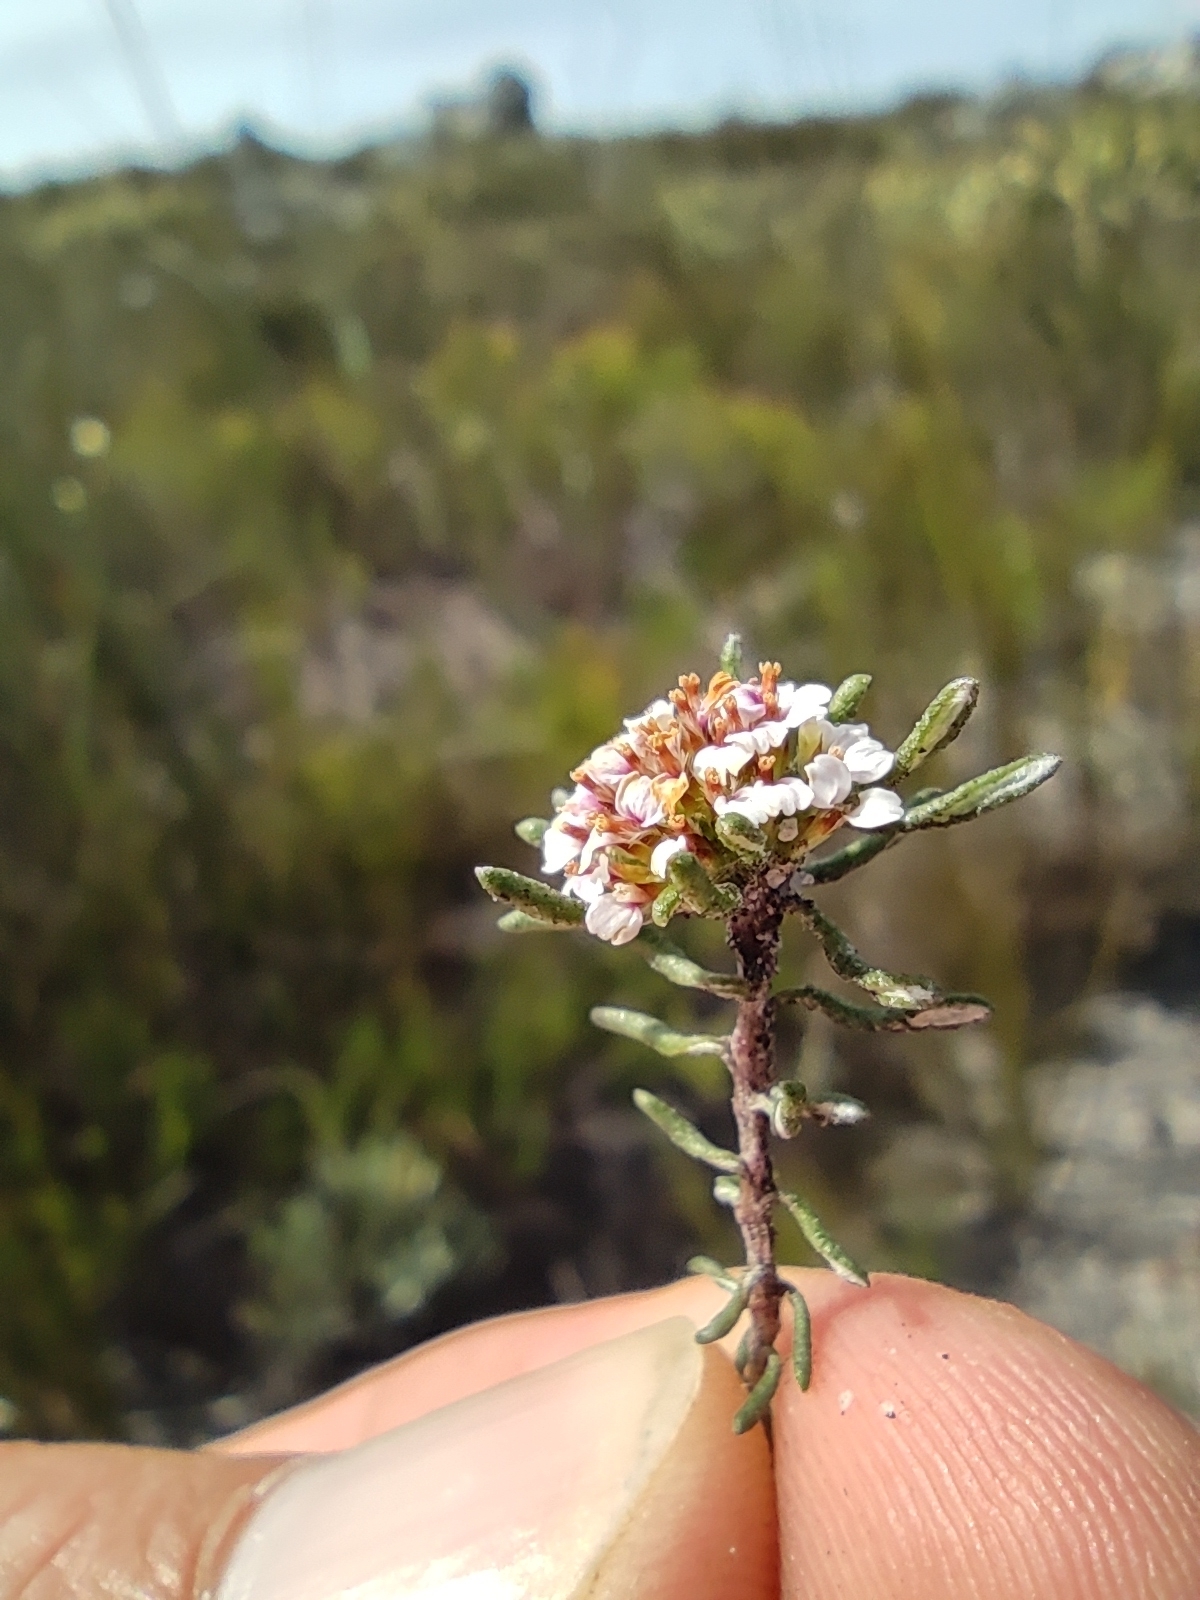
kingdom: Plantae
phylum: Tracheophyta
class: Magnoliopsida
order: Asterales
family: Asteraceae
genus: Disparago
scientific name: Disparago laxifolia
